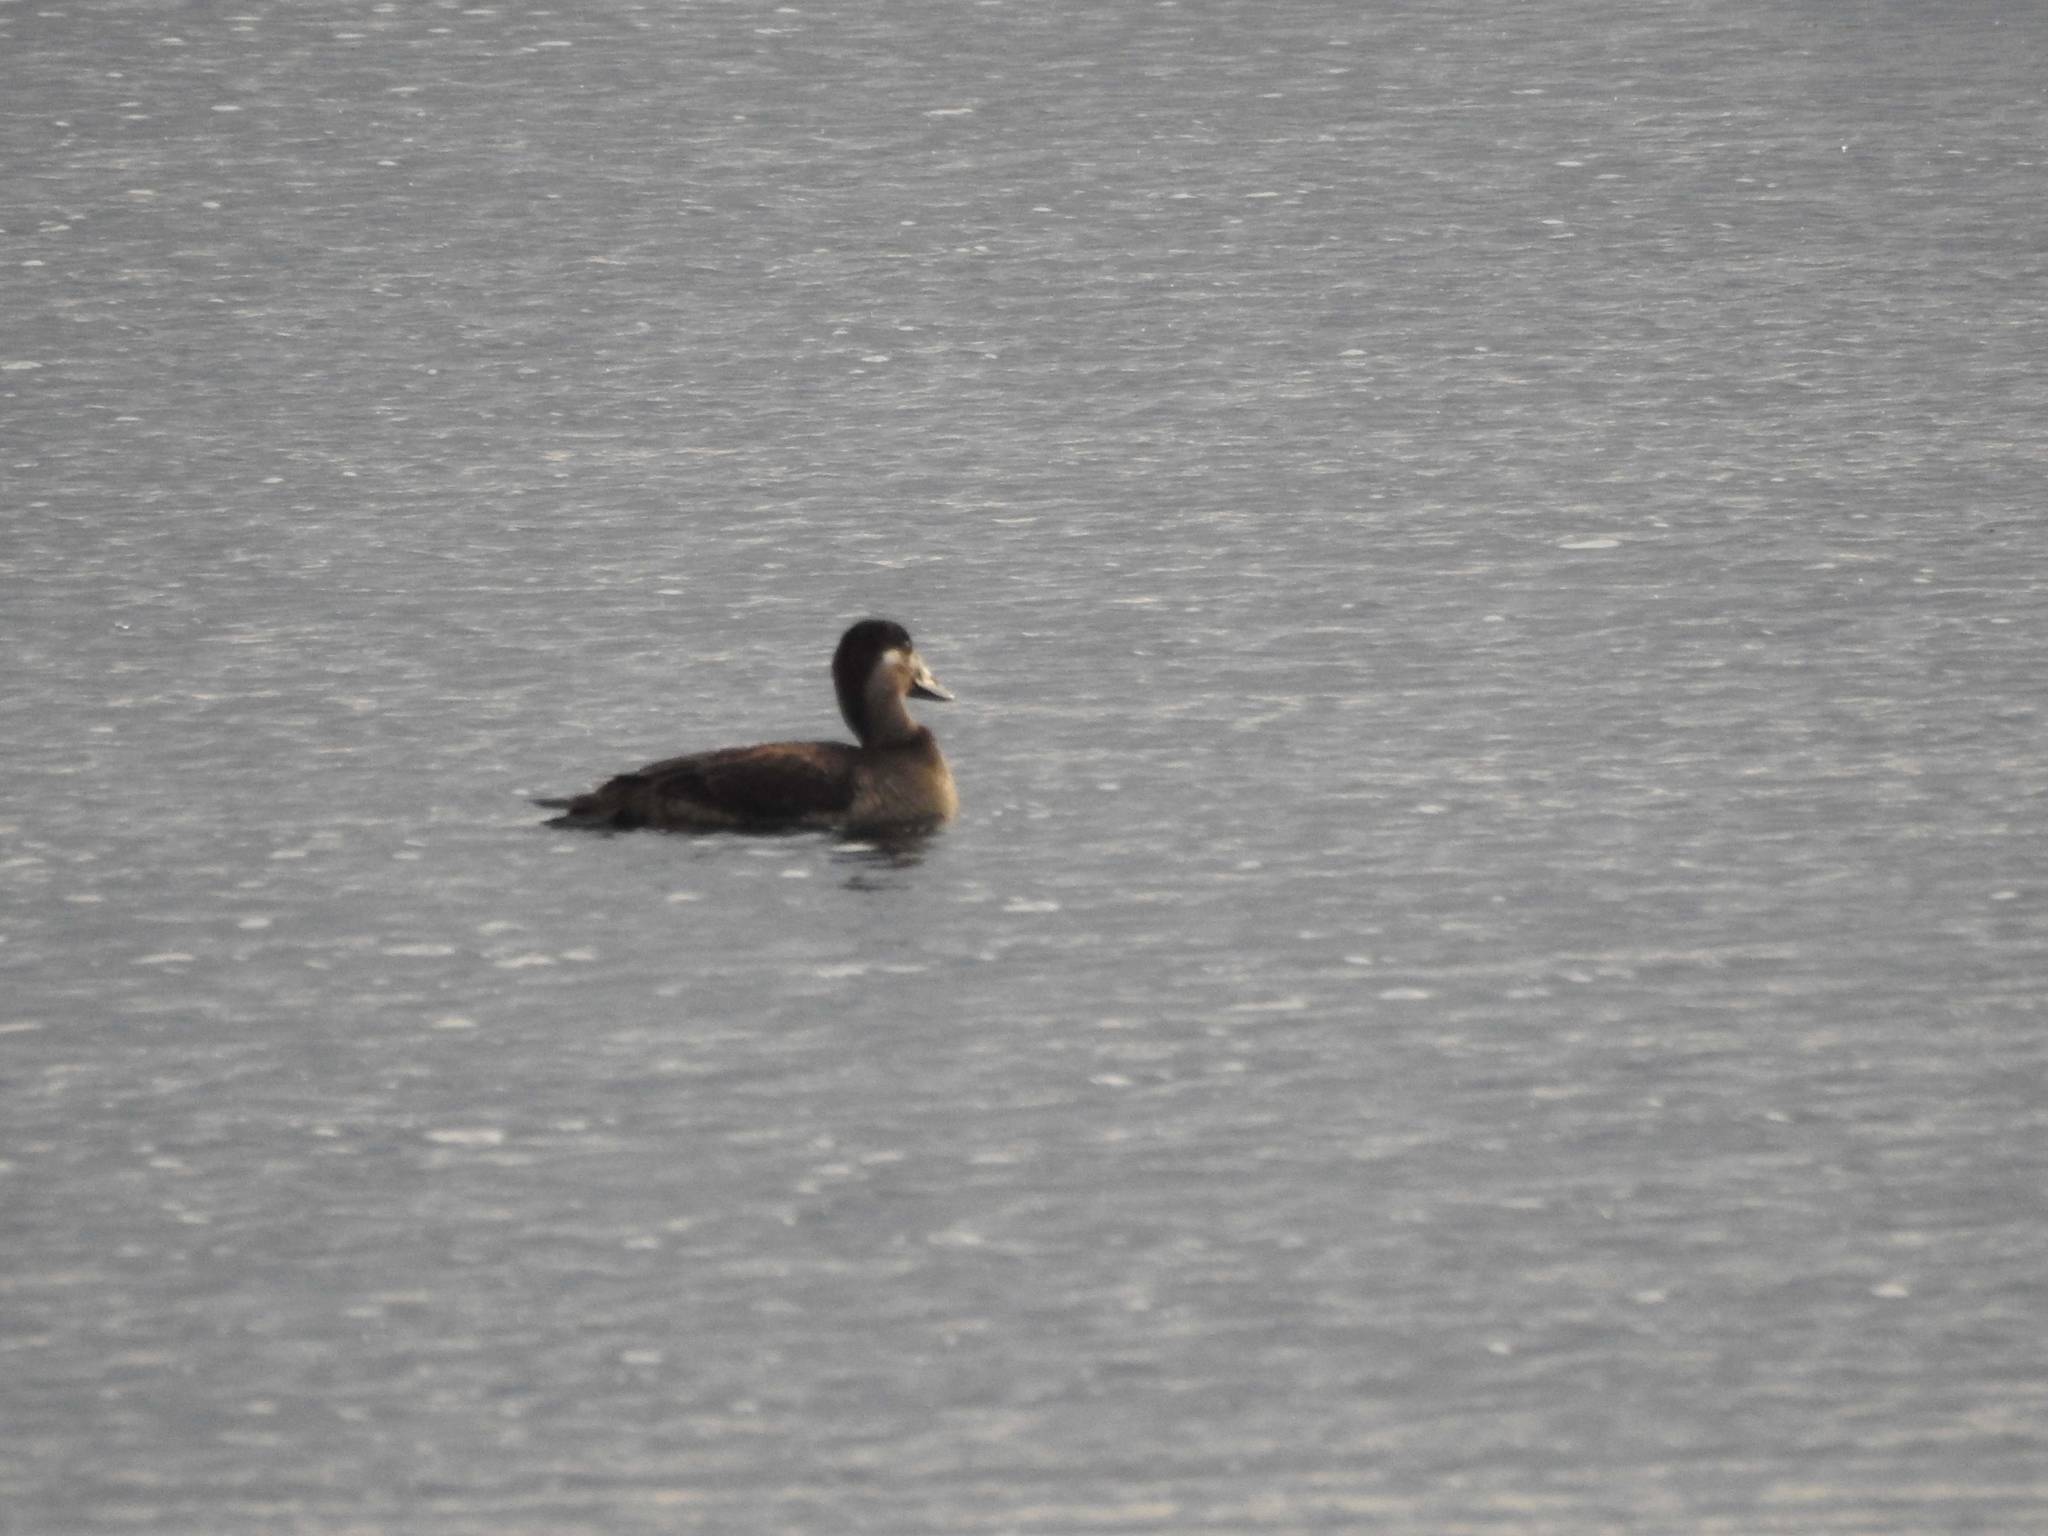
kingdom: Animalia
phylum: Chordata
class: Aves
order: Anseriformes
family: Anatidae
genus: Melanitta
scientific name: Melanitta perspicillata
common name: Surf scoter
